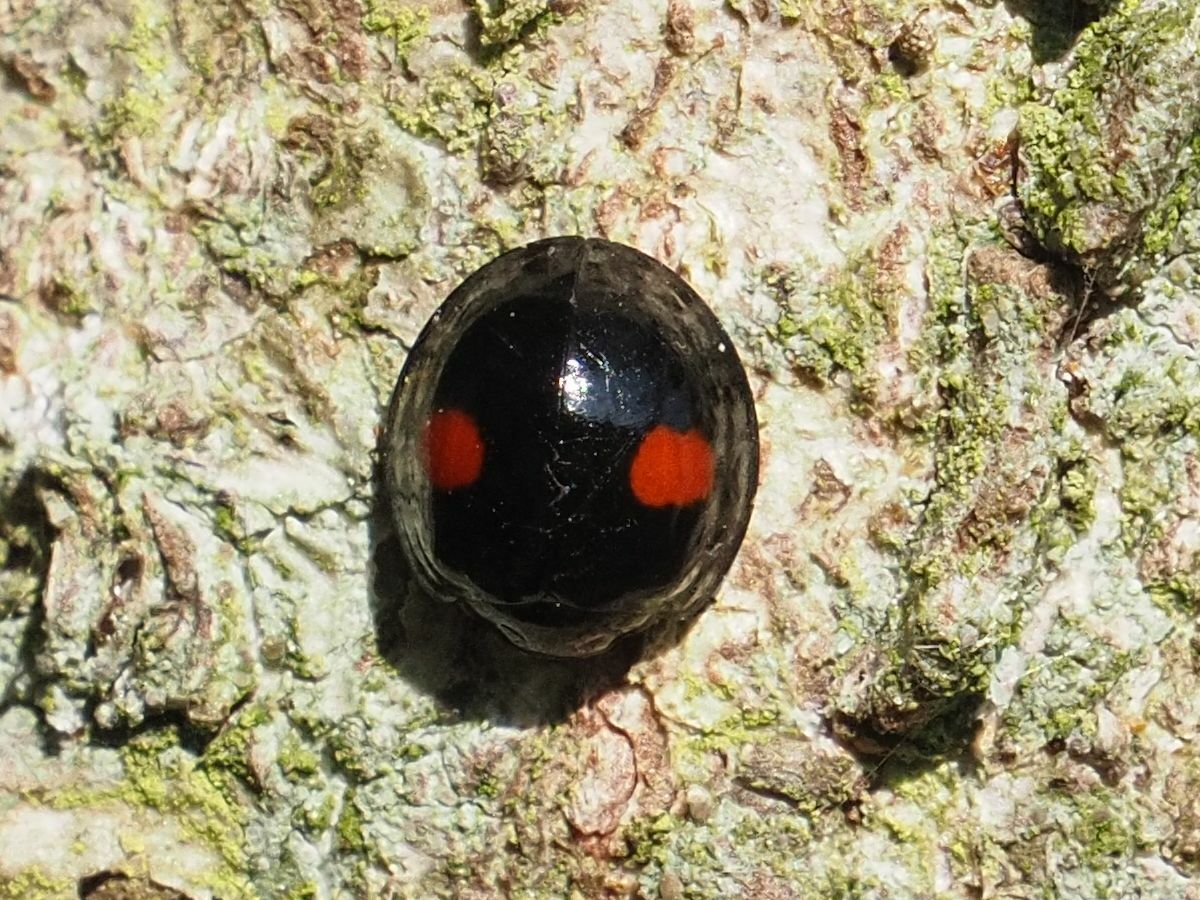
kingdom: Animalia
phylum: Arthropoda
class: Insecta
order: Coleoptera
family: Coccinellidae
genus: Chilocorus
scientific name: Chilocorus renipustulatus
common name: Kidney-spot ladybird
